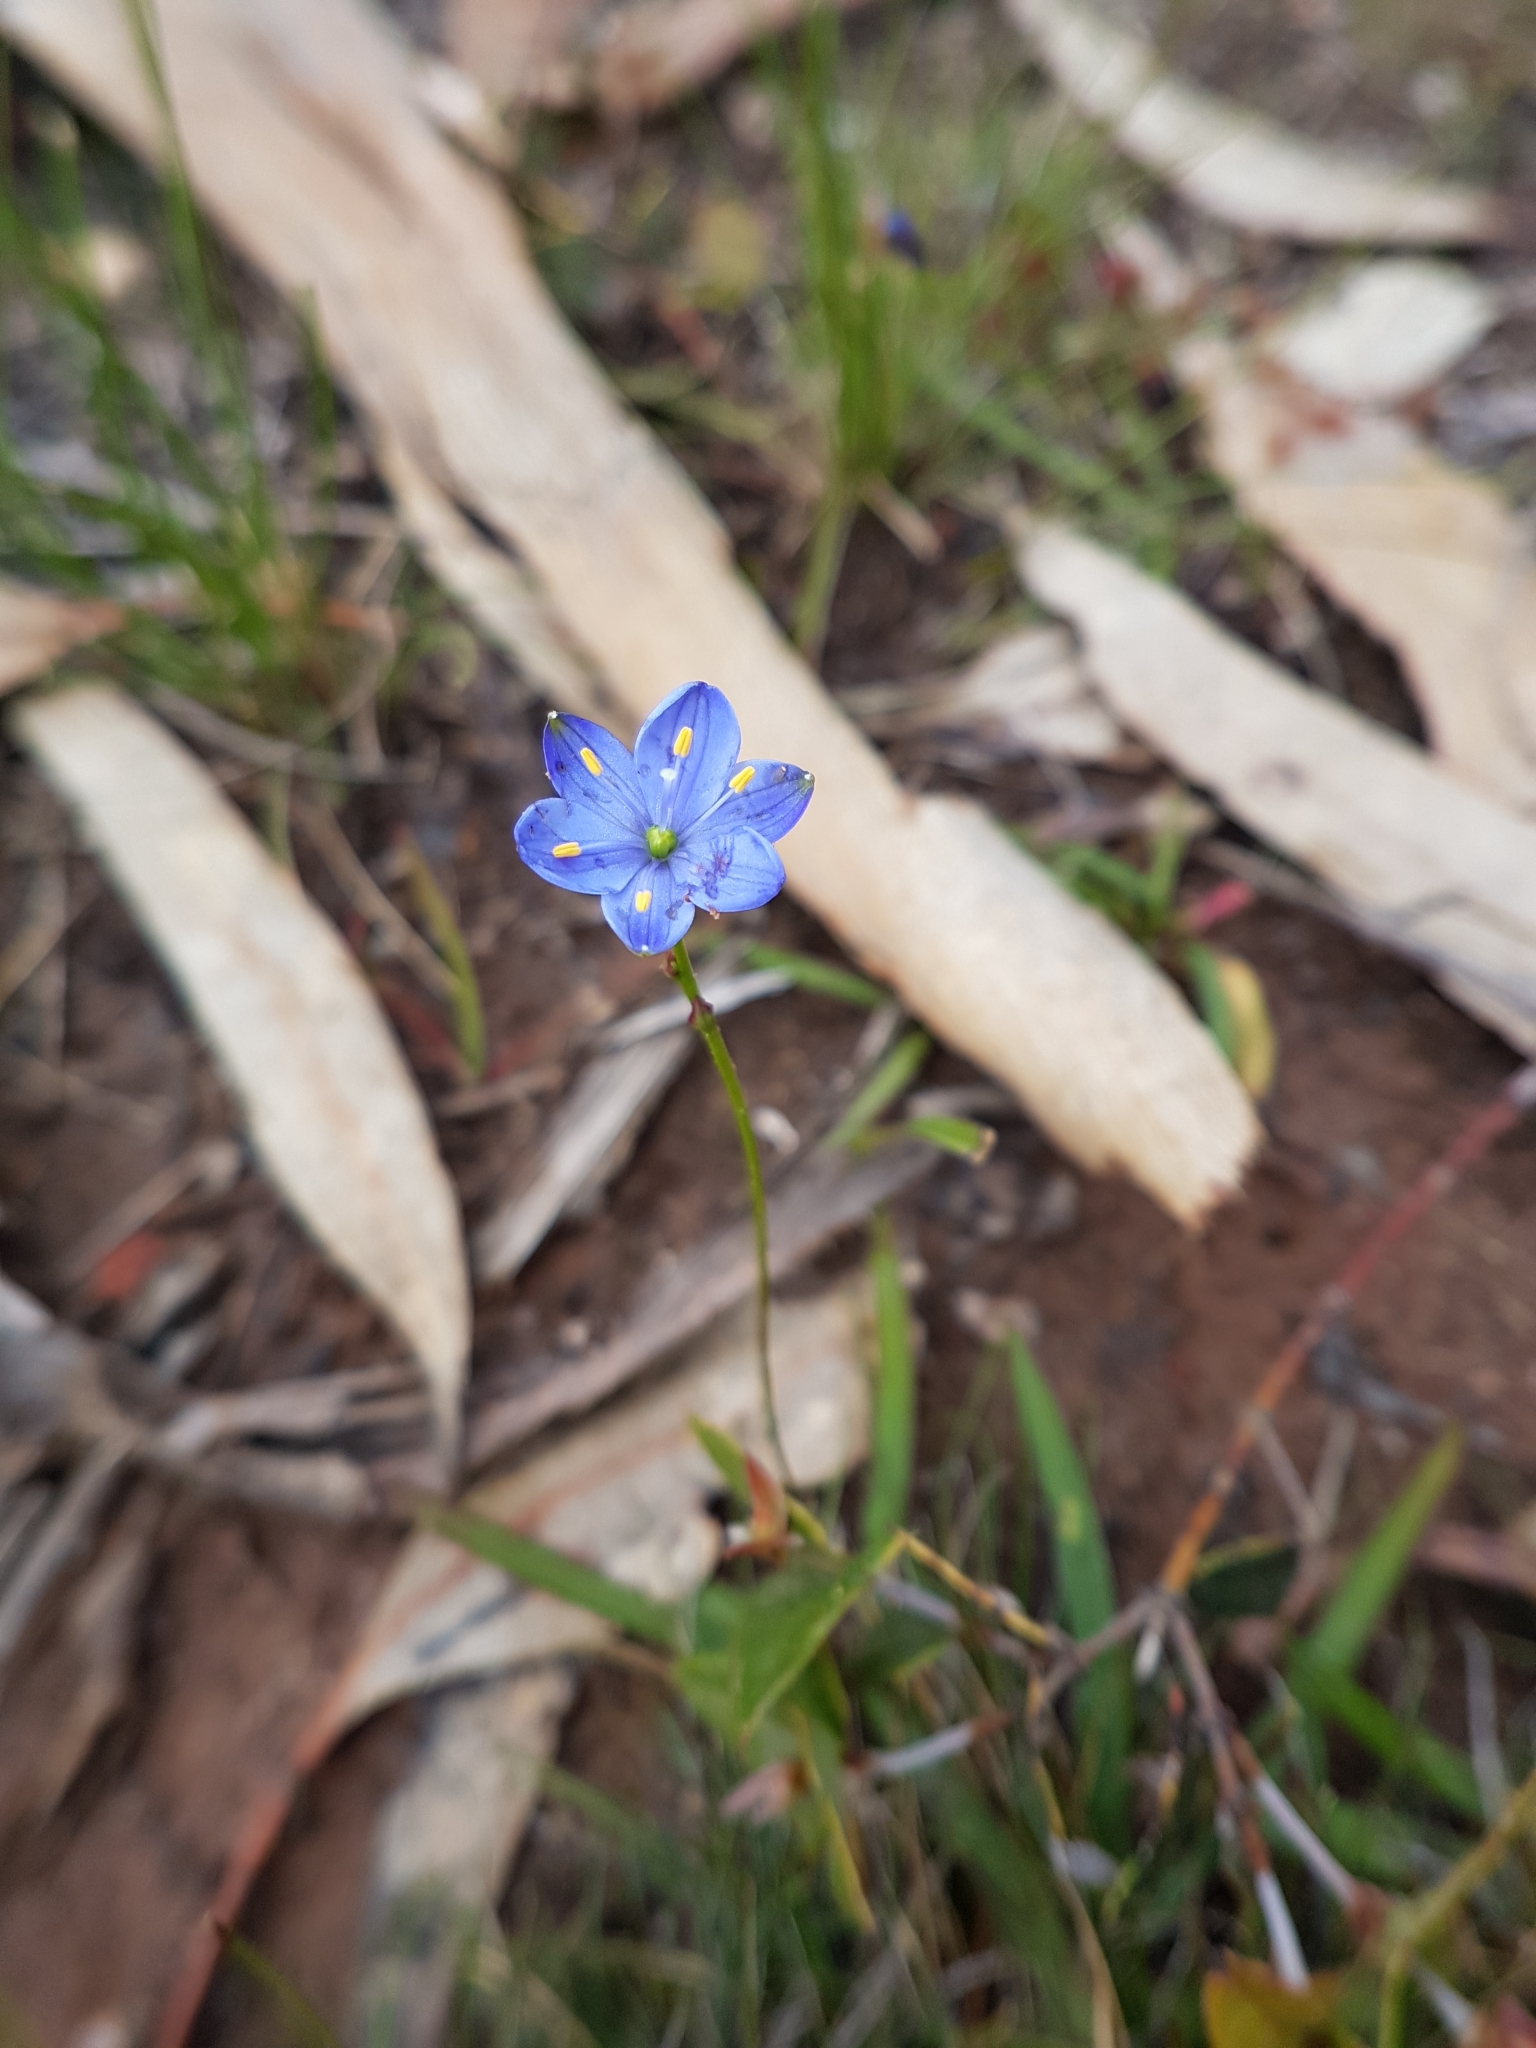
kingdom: Plantae
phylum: Tracheophyta
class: Liliopsida
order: Asparagales
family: Asphodelaceae
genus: Chamaescilla
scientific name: Chamaescilla corymbosa
